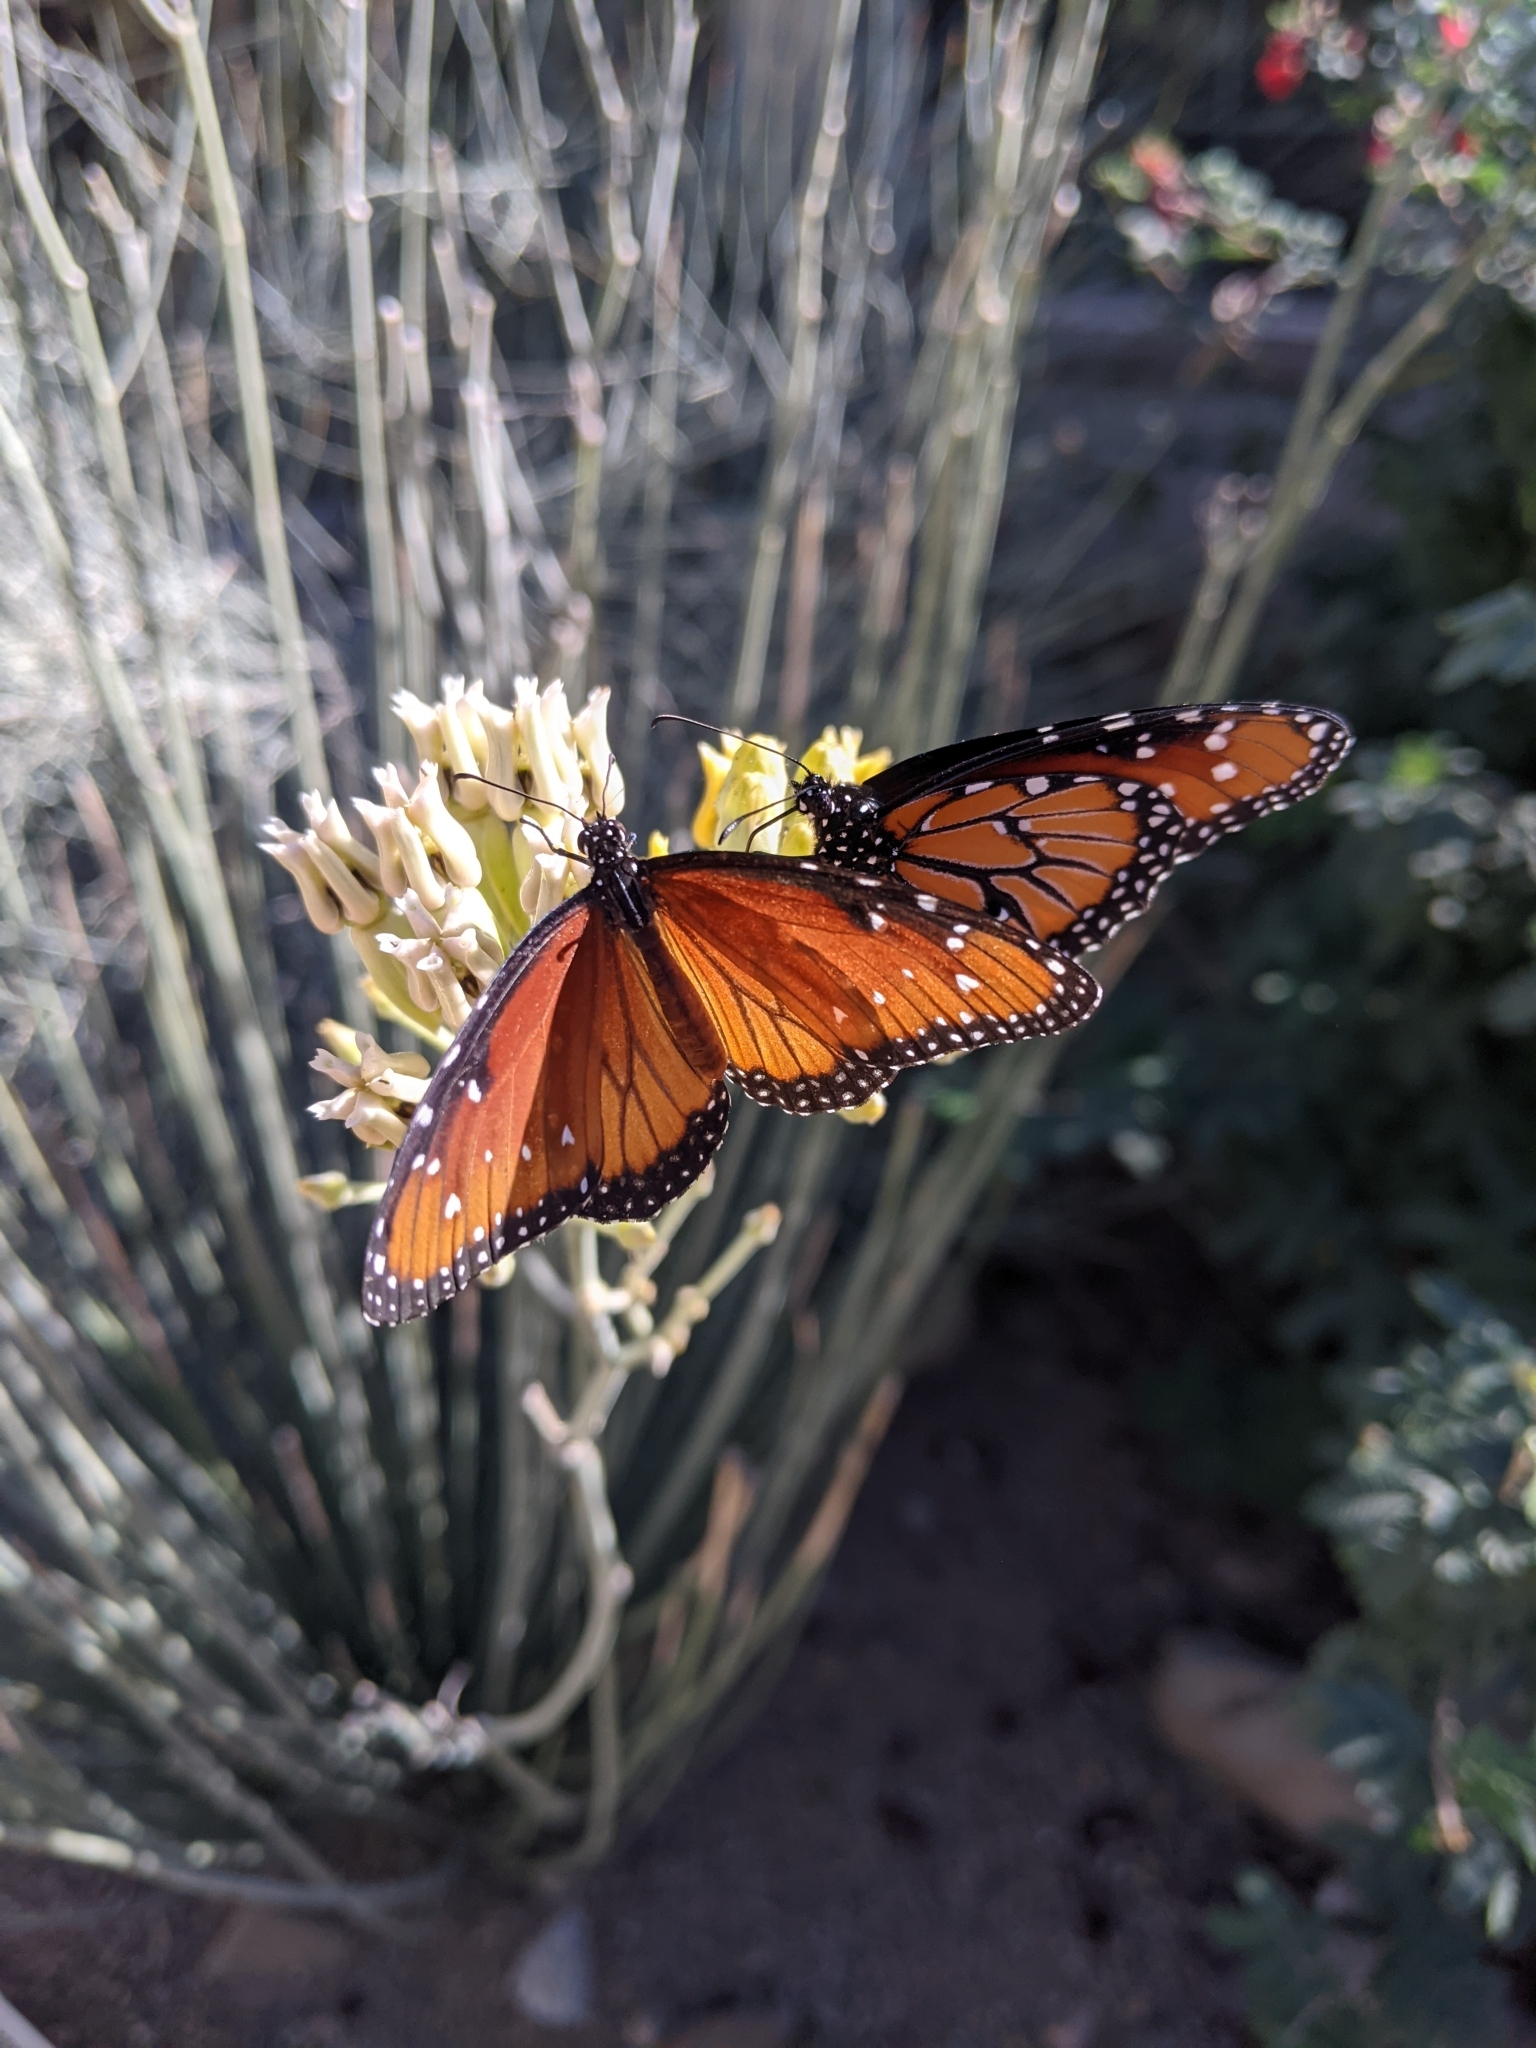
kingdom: Animalia
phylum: Arthropoda
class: Insecta
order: Lepidoptera
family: Nymphalidae
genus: Danaus
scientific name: Danaus gilippus
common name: Queen
